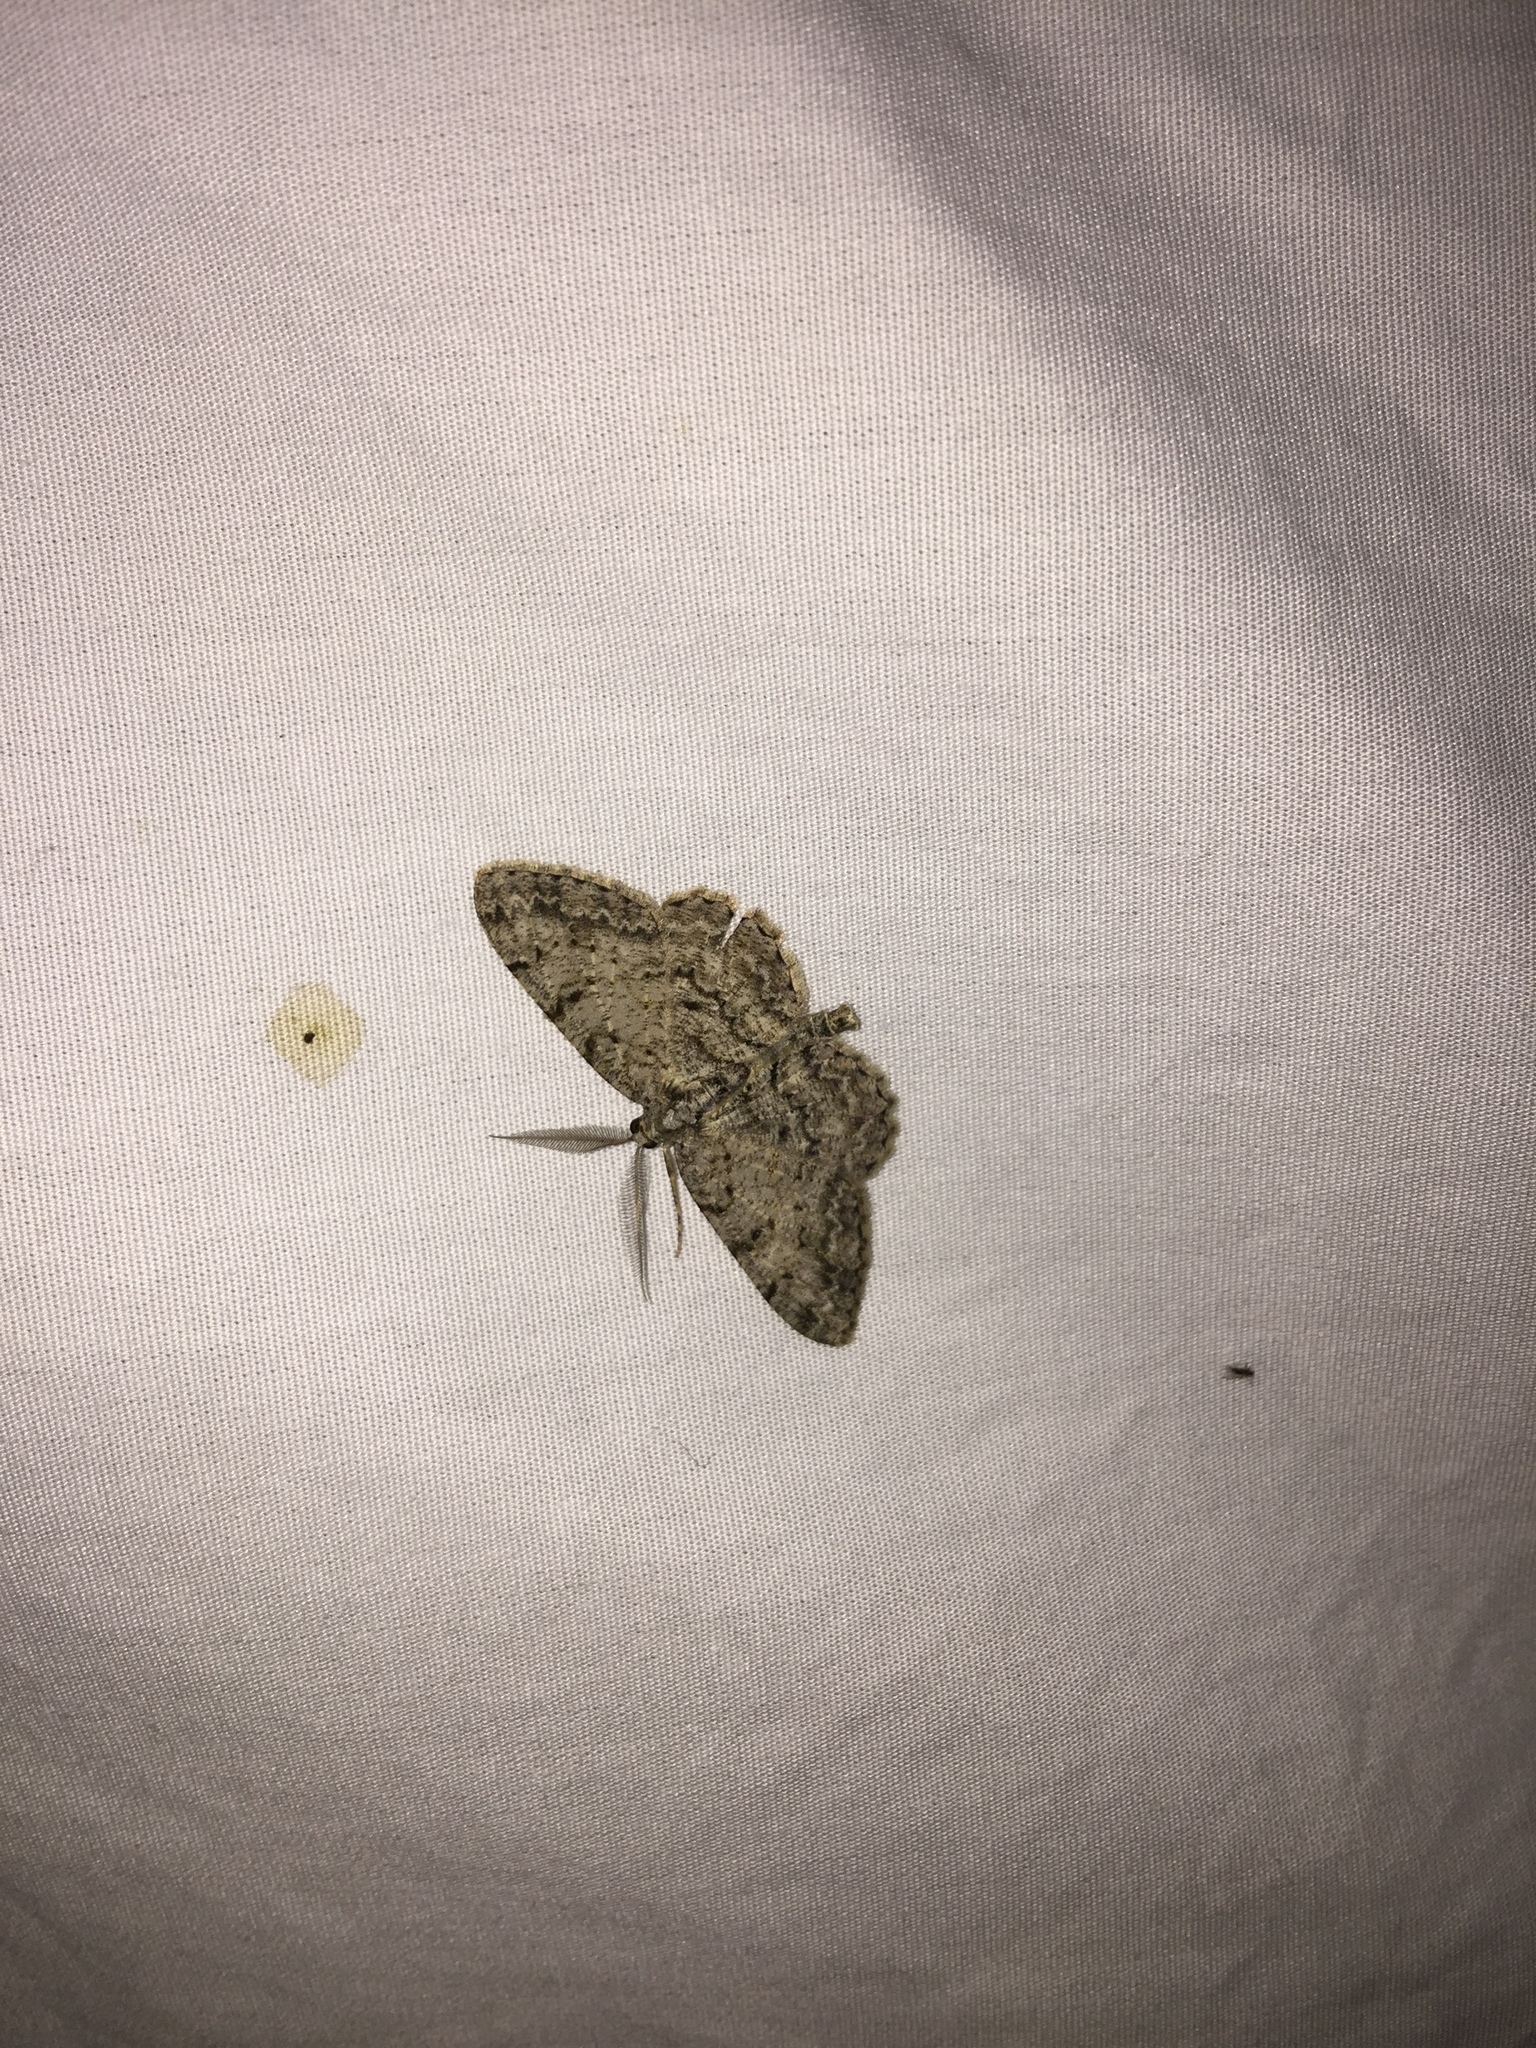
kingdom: Animalia
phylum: Arthropoda
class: Insecta
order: Lepidoptera
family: Geometridae
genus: Protoboarmia
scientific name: Protoboarmia porcelaria
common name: Porcelain gray
